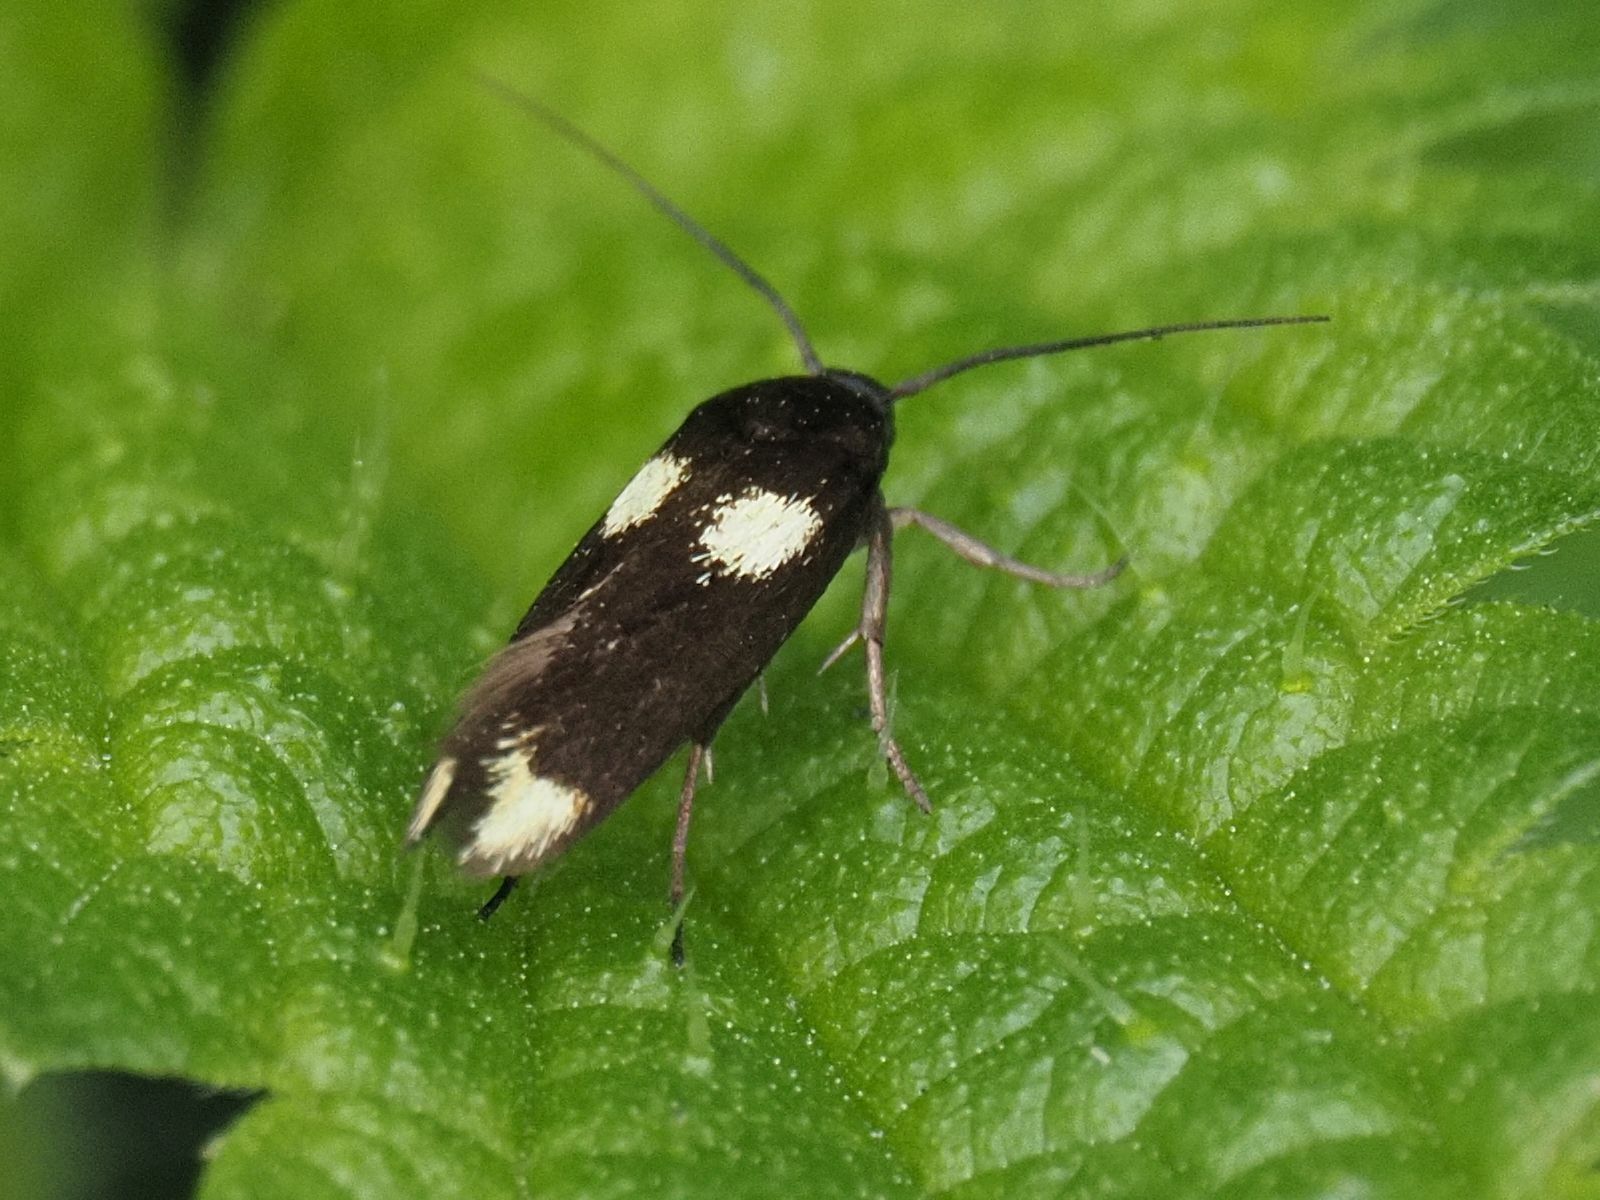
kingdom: Animalia
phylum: Arthropoda
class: Insecta
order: Lepidoptera
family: Scythrididae
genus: Scythris
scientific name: Scythris sinensis
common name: Kentish owlet
